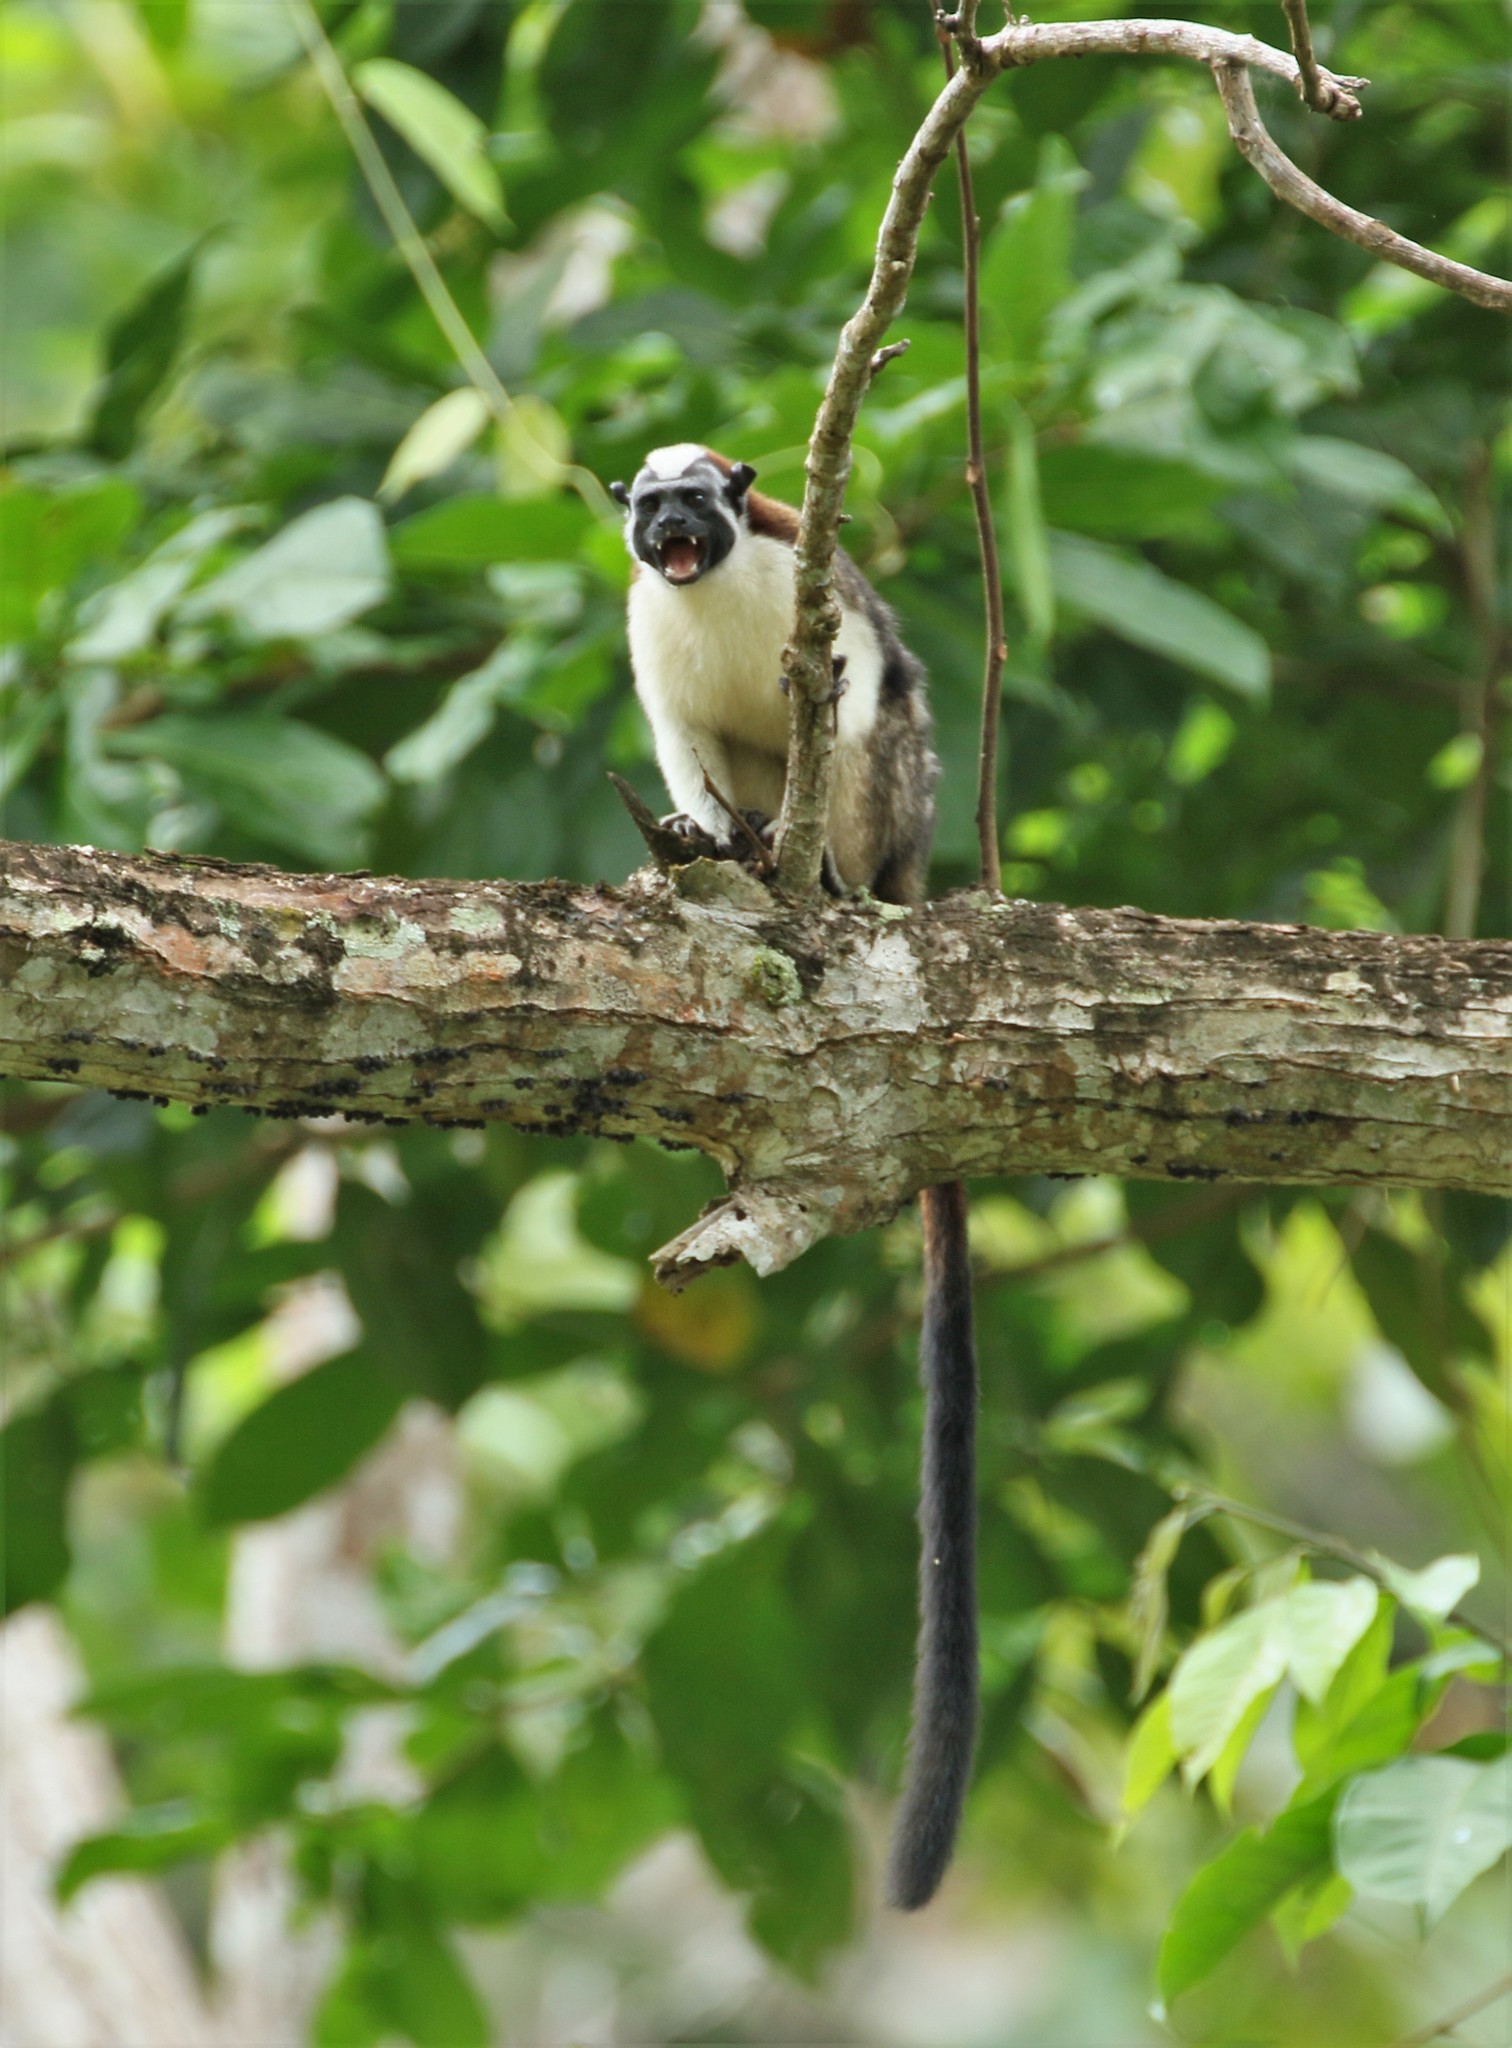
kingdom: Animalia
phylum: Chordata
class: Mammalia
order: Primates
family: Callitrichidae
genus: Saguinus
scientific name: Saguinus geoffroyi
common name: Geoffroy s tamarin
